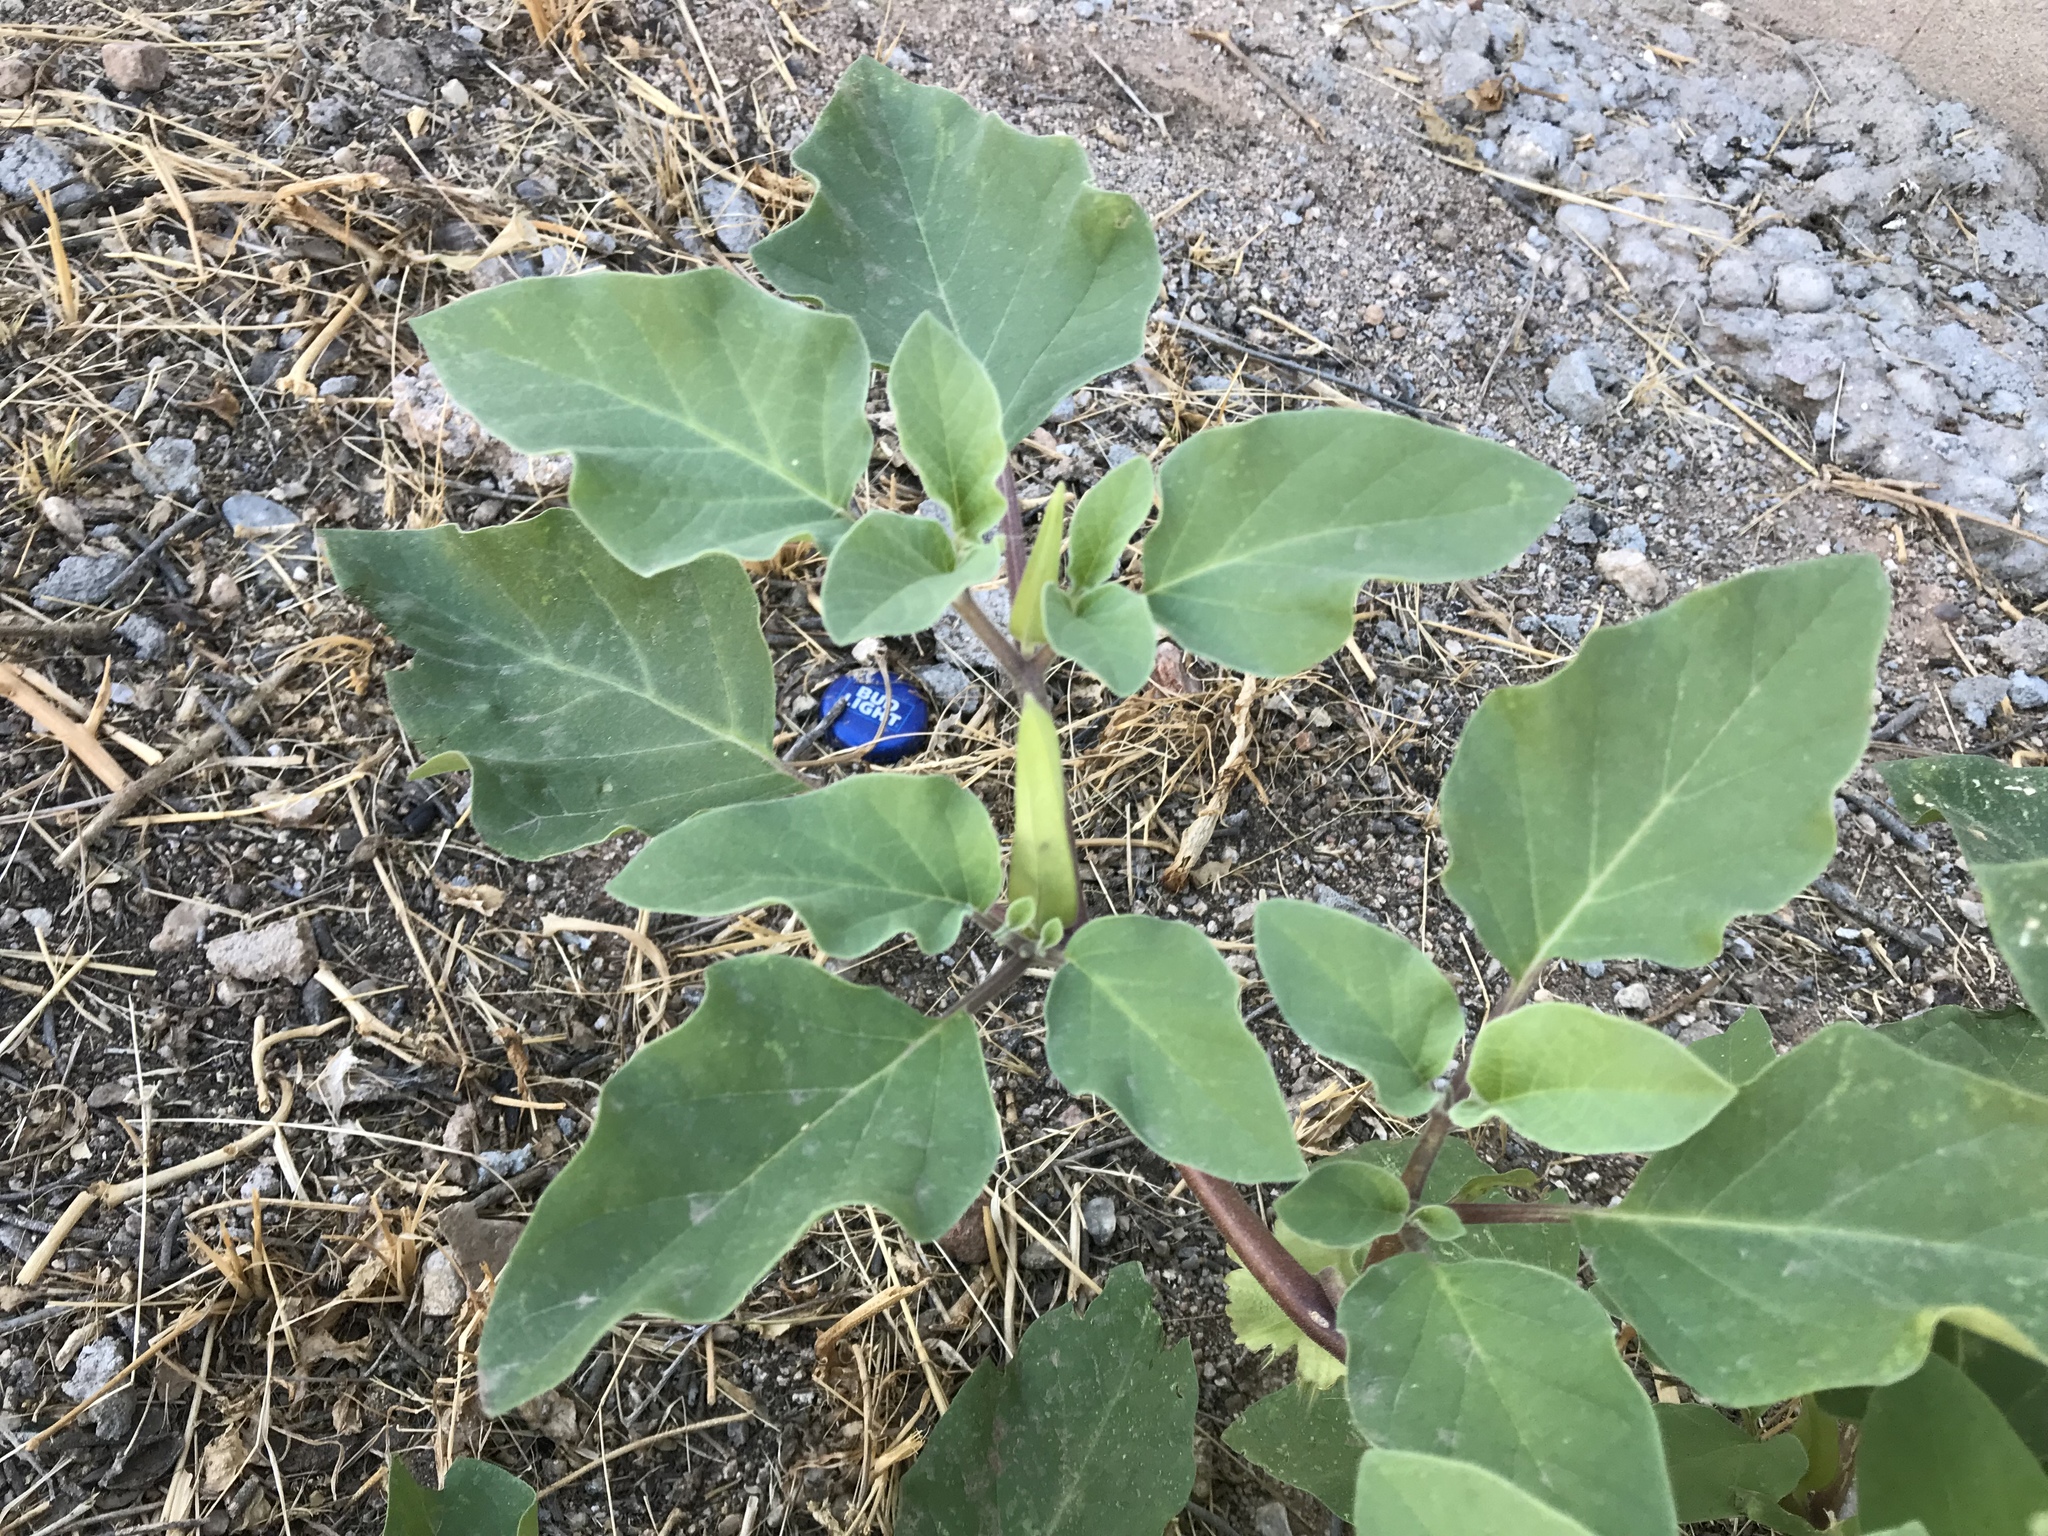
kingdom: Plantae
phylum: Tracheophyta
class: Magnoliopsida
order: Solanales
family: Solanaceae
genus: Datura
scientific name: Datura discolor
